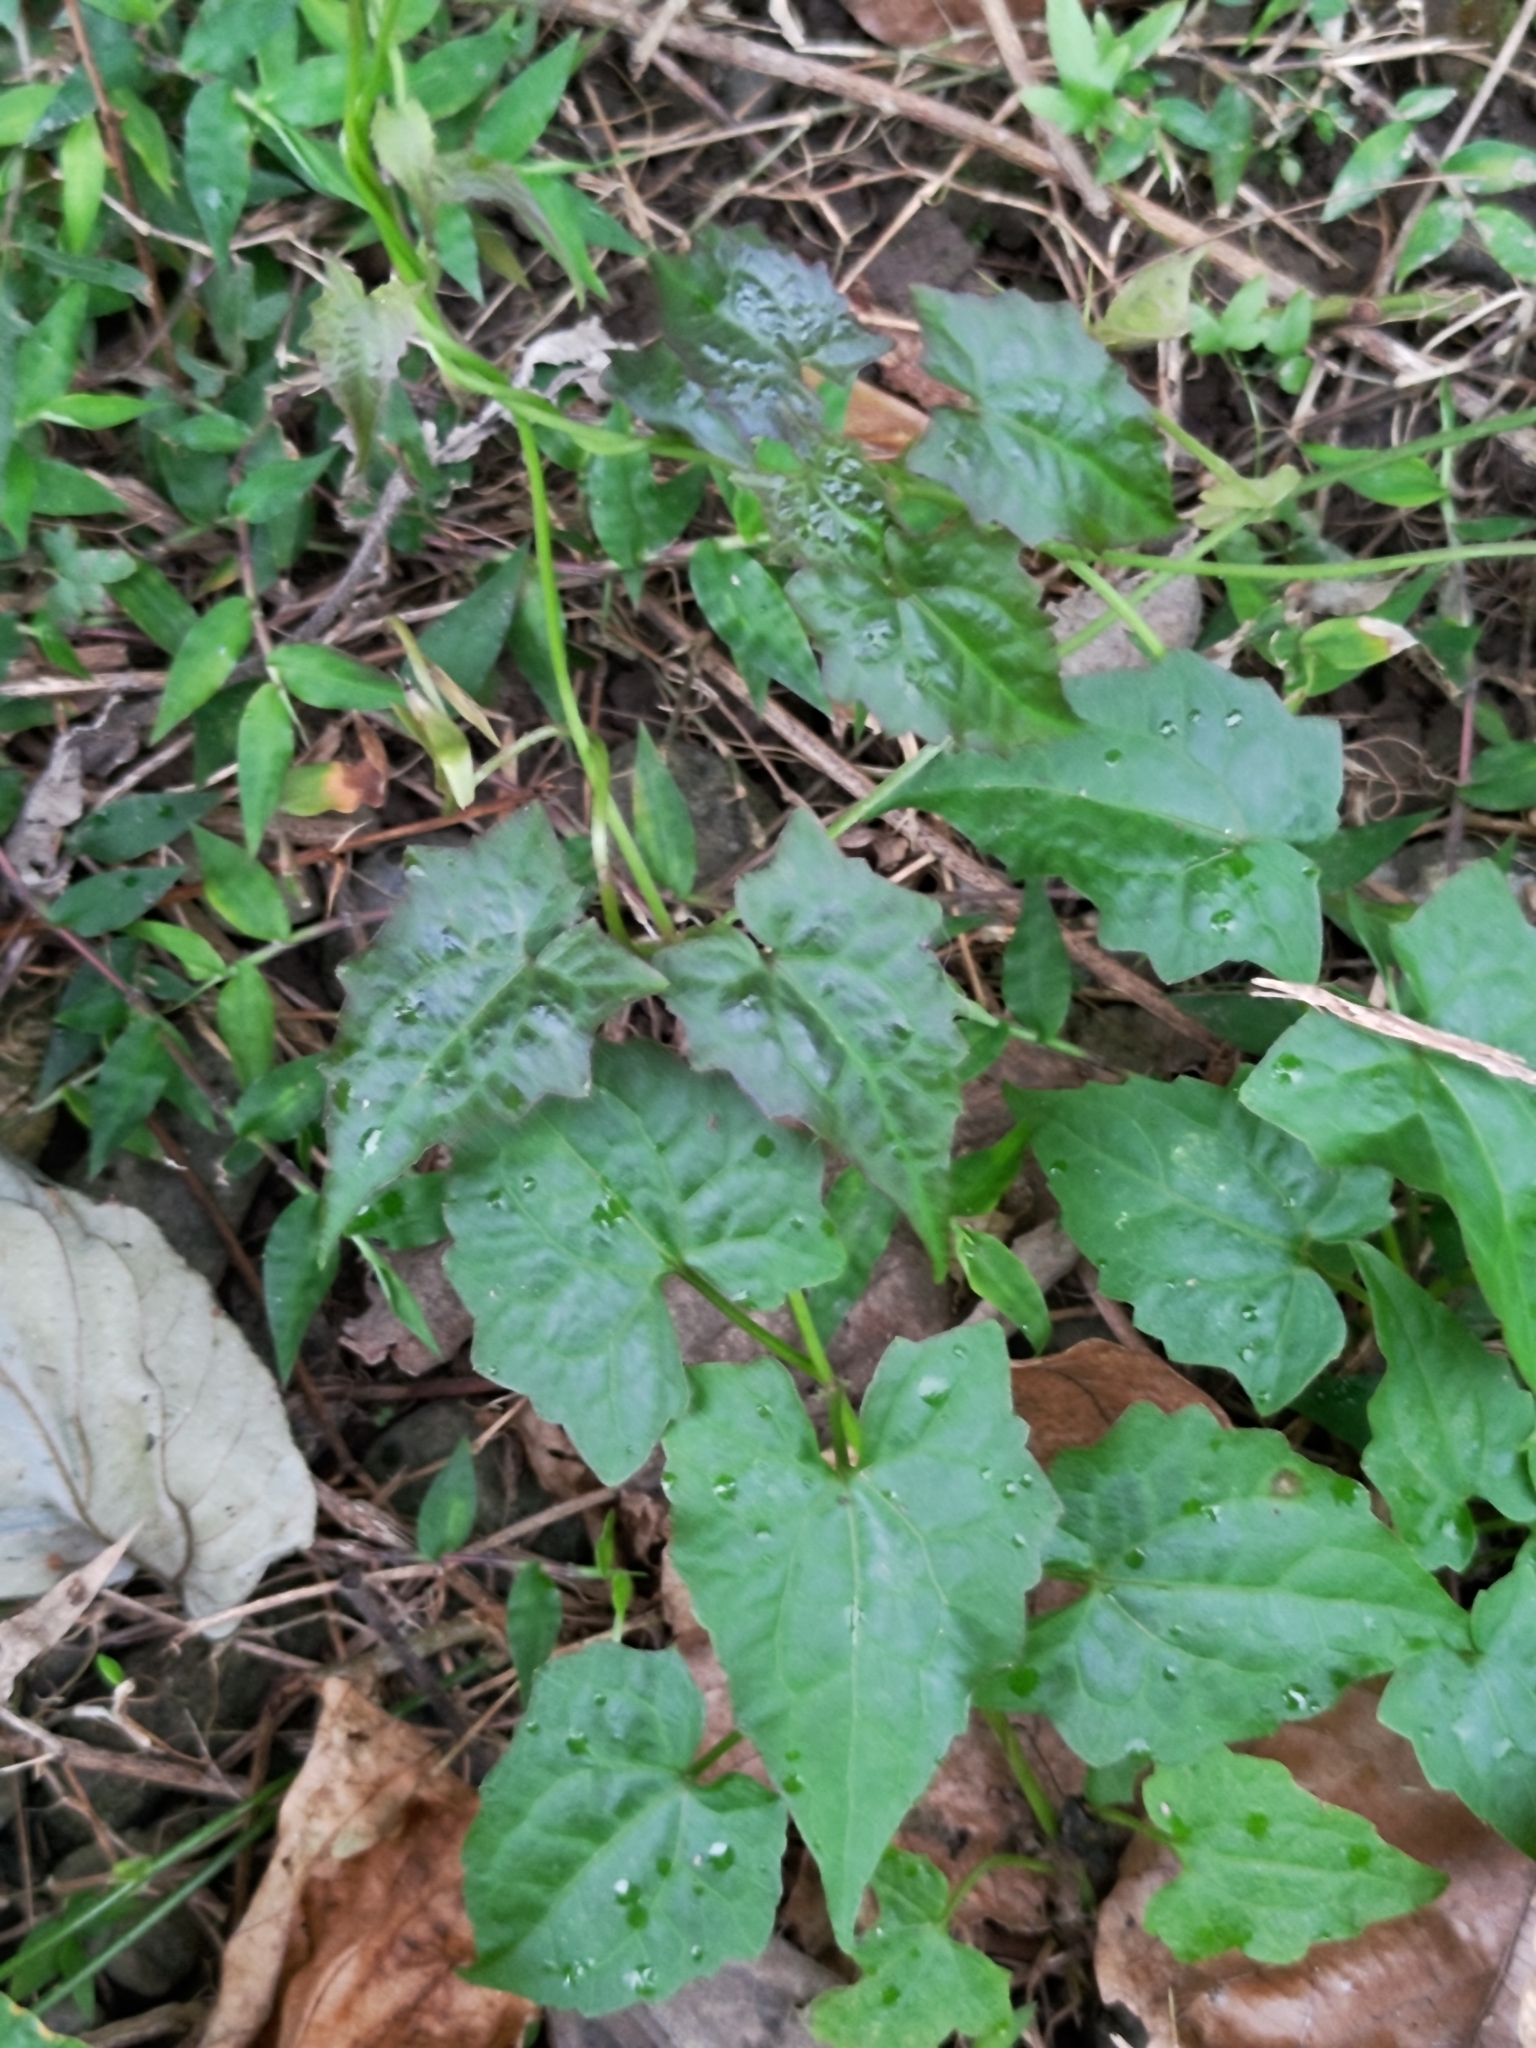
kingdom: Plantae
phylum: Tracheophyta
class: Magnoliopsida
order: Asterales
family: Asteraceae
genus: Mikania
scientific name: Mikania micrantha
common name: Mile-a-minute
